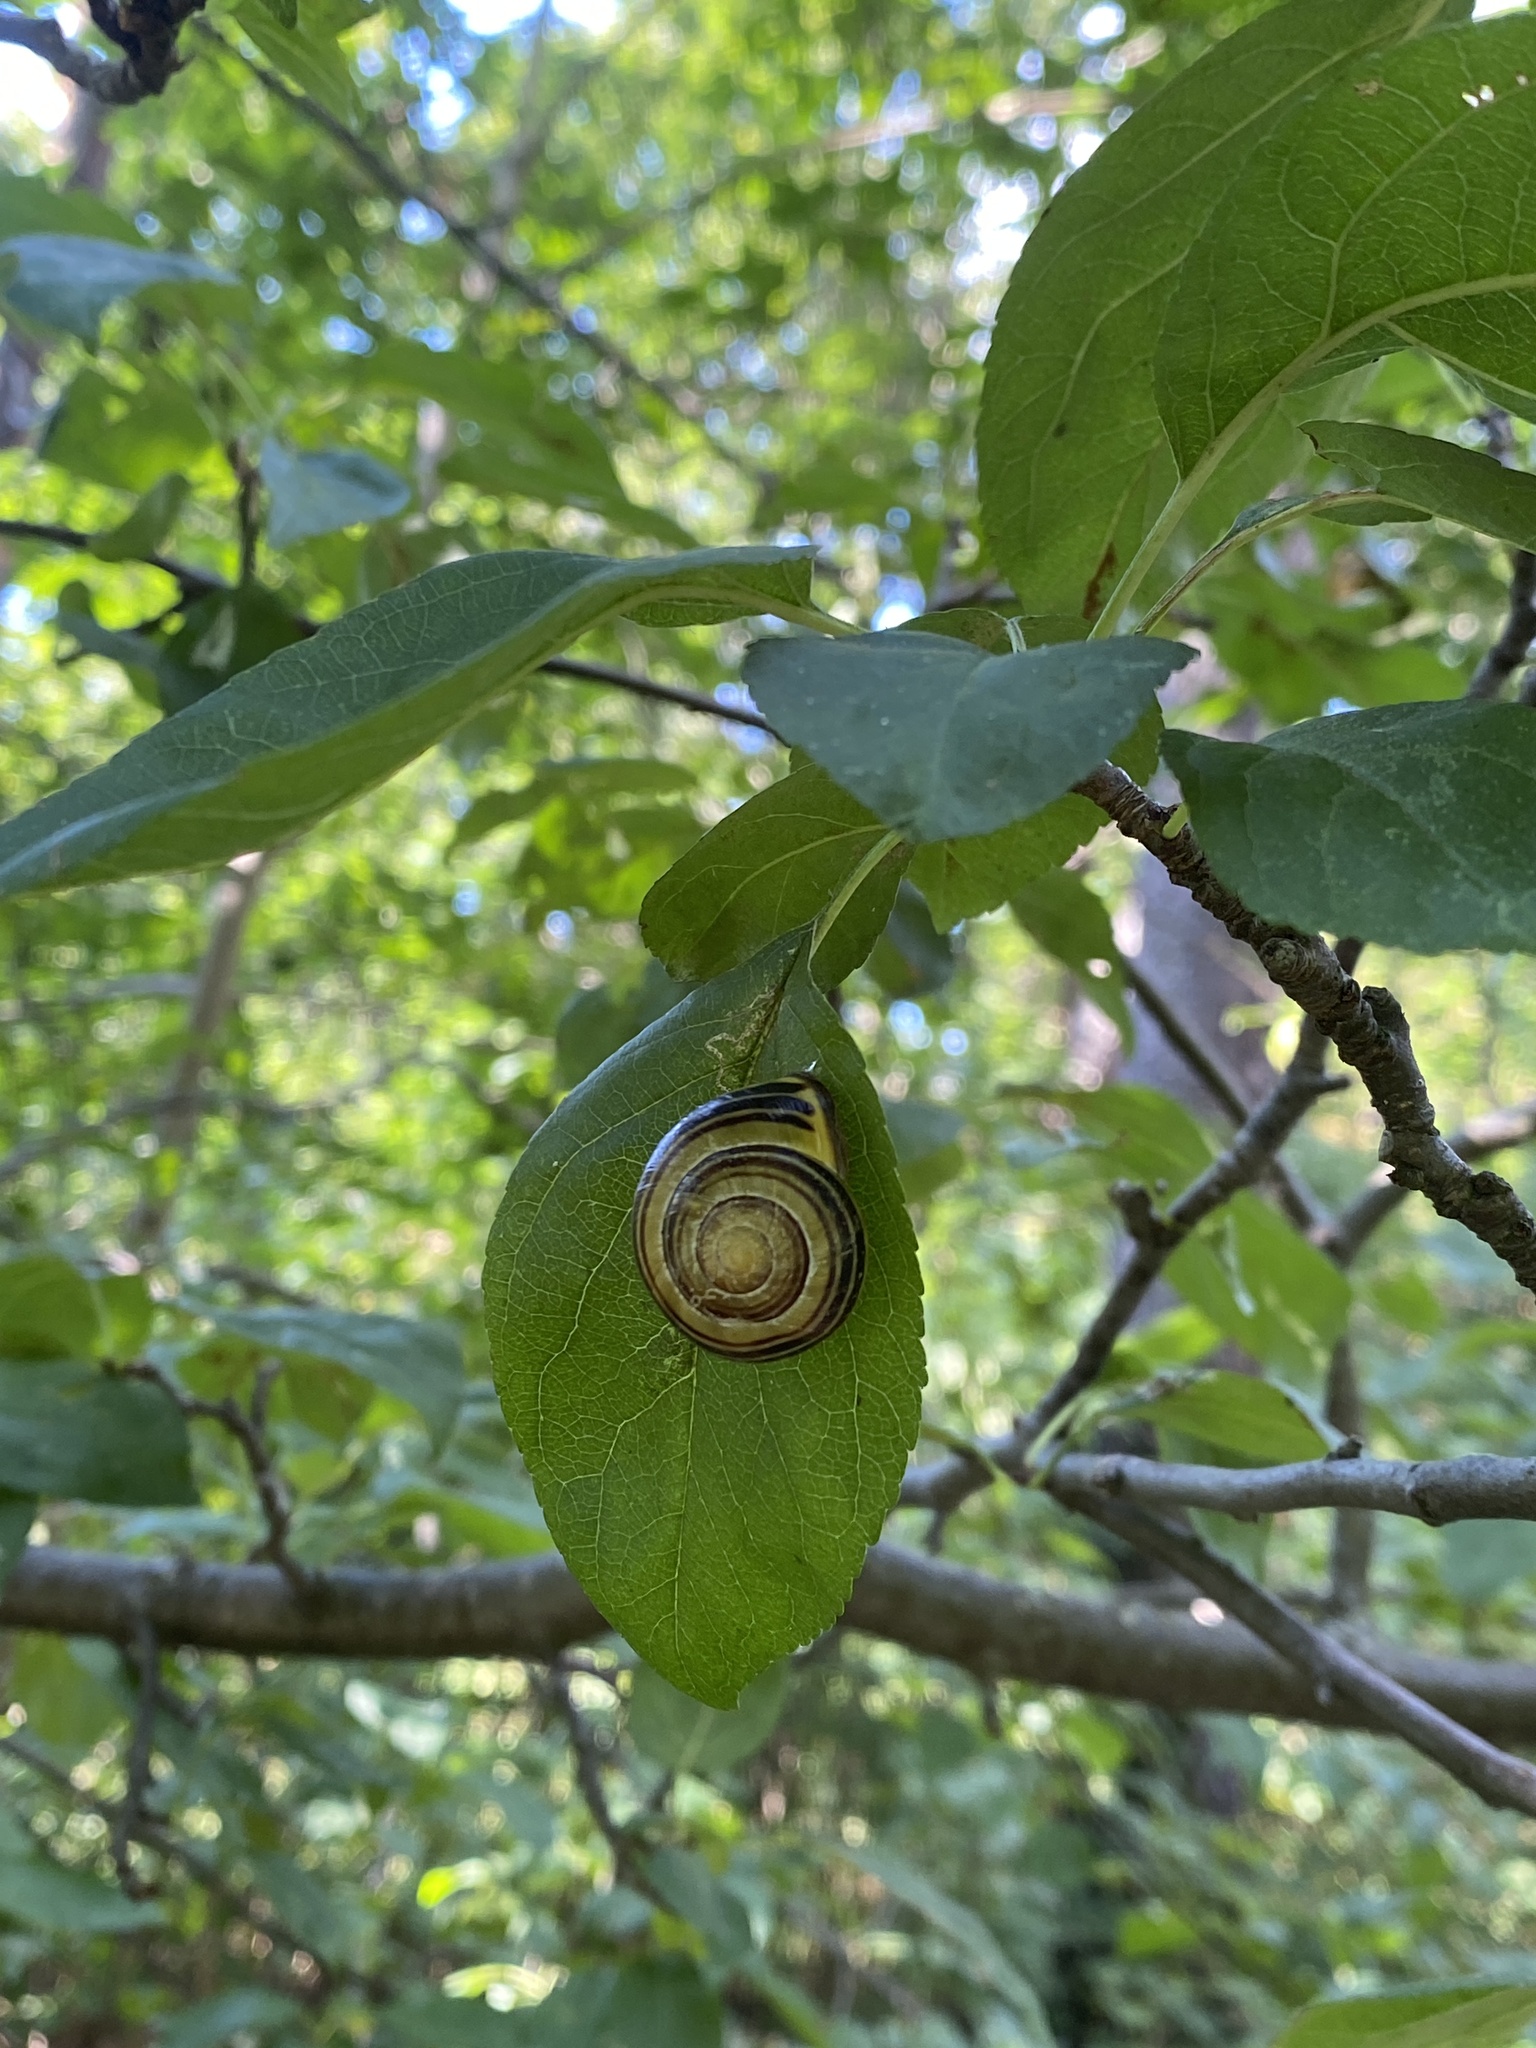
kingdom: Animalia
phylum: Mollusca
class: Gastropoda
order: Stylommatophora
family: Helicidae
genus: Cepaea
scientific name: Cepaea nemoralis
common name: Grovesnail
